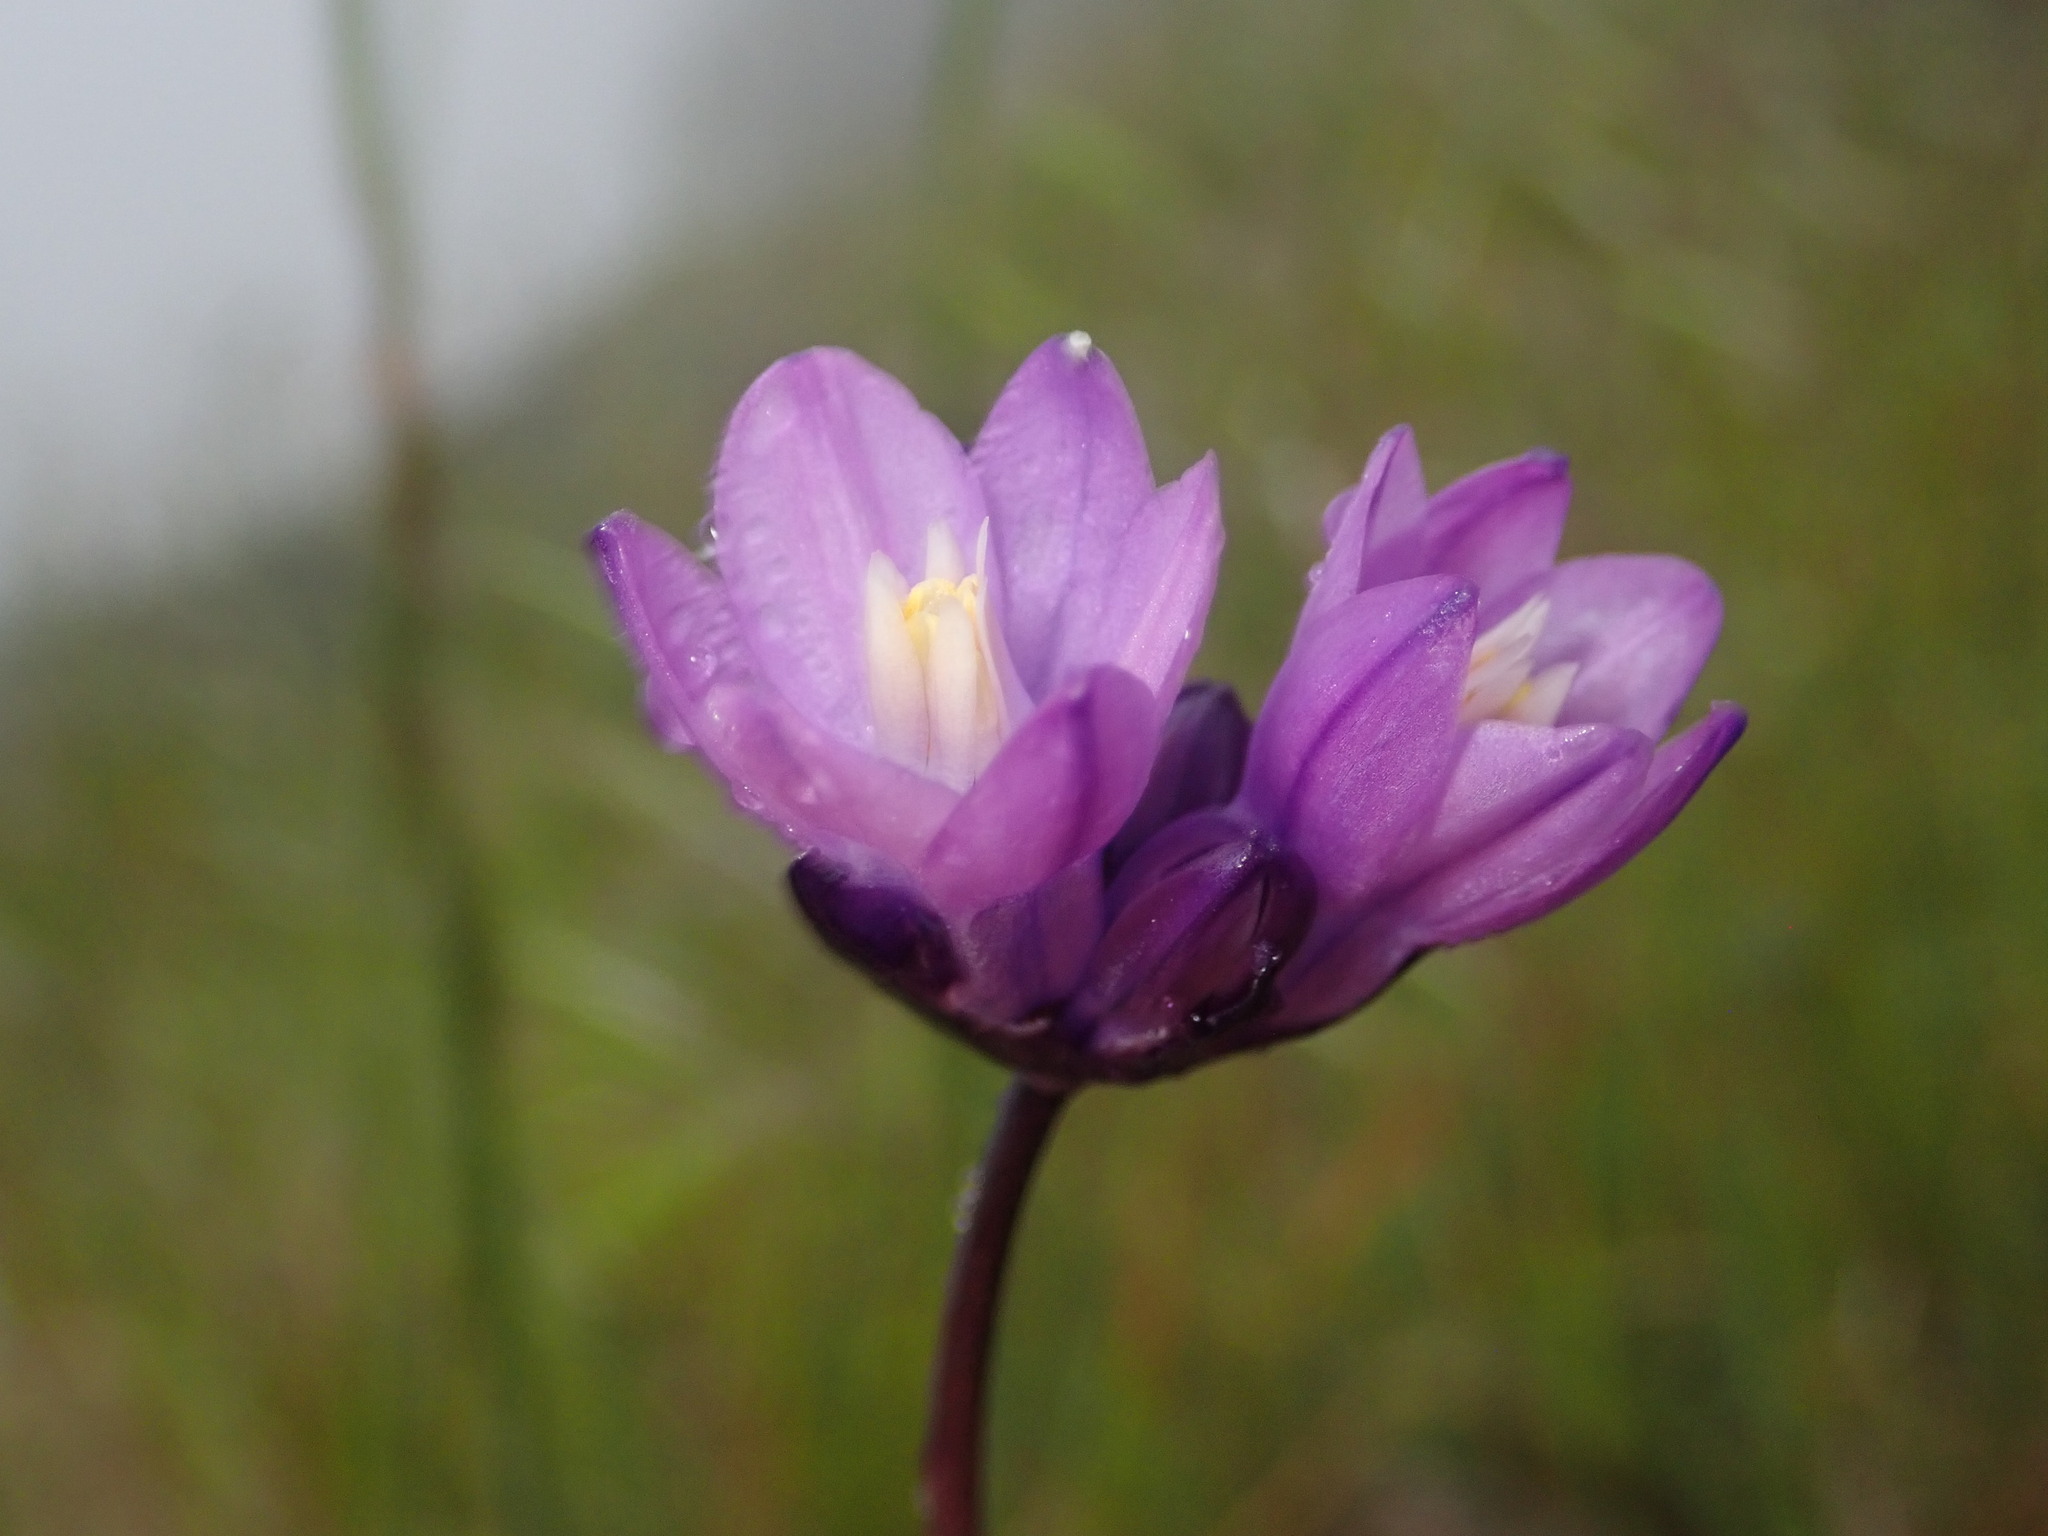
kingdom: Plantae
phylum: Tracheophyta
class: Liliopsida
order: Asparagales
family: Asparagaceae
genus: Dipterostemon
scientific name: Dipterostemon capitatus
